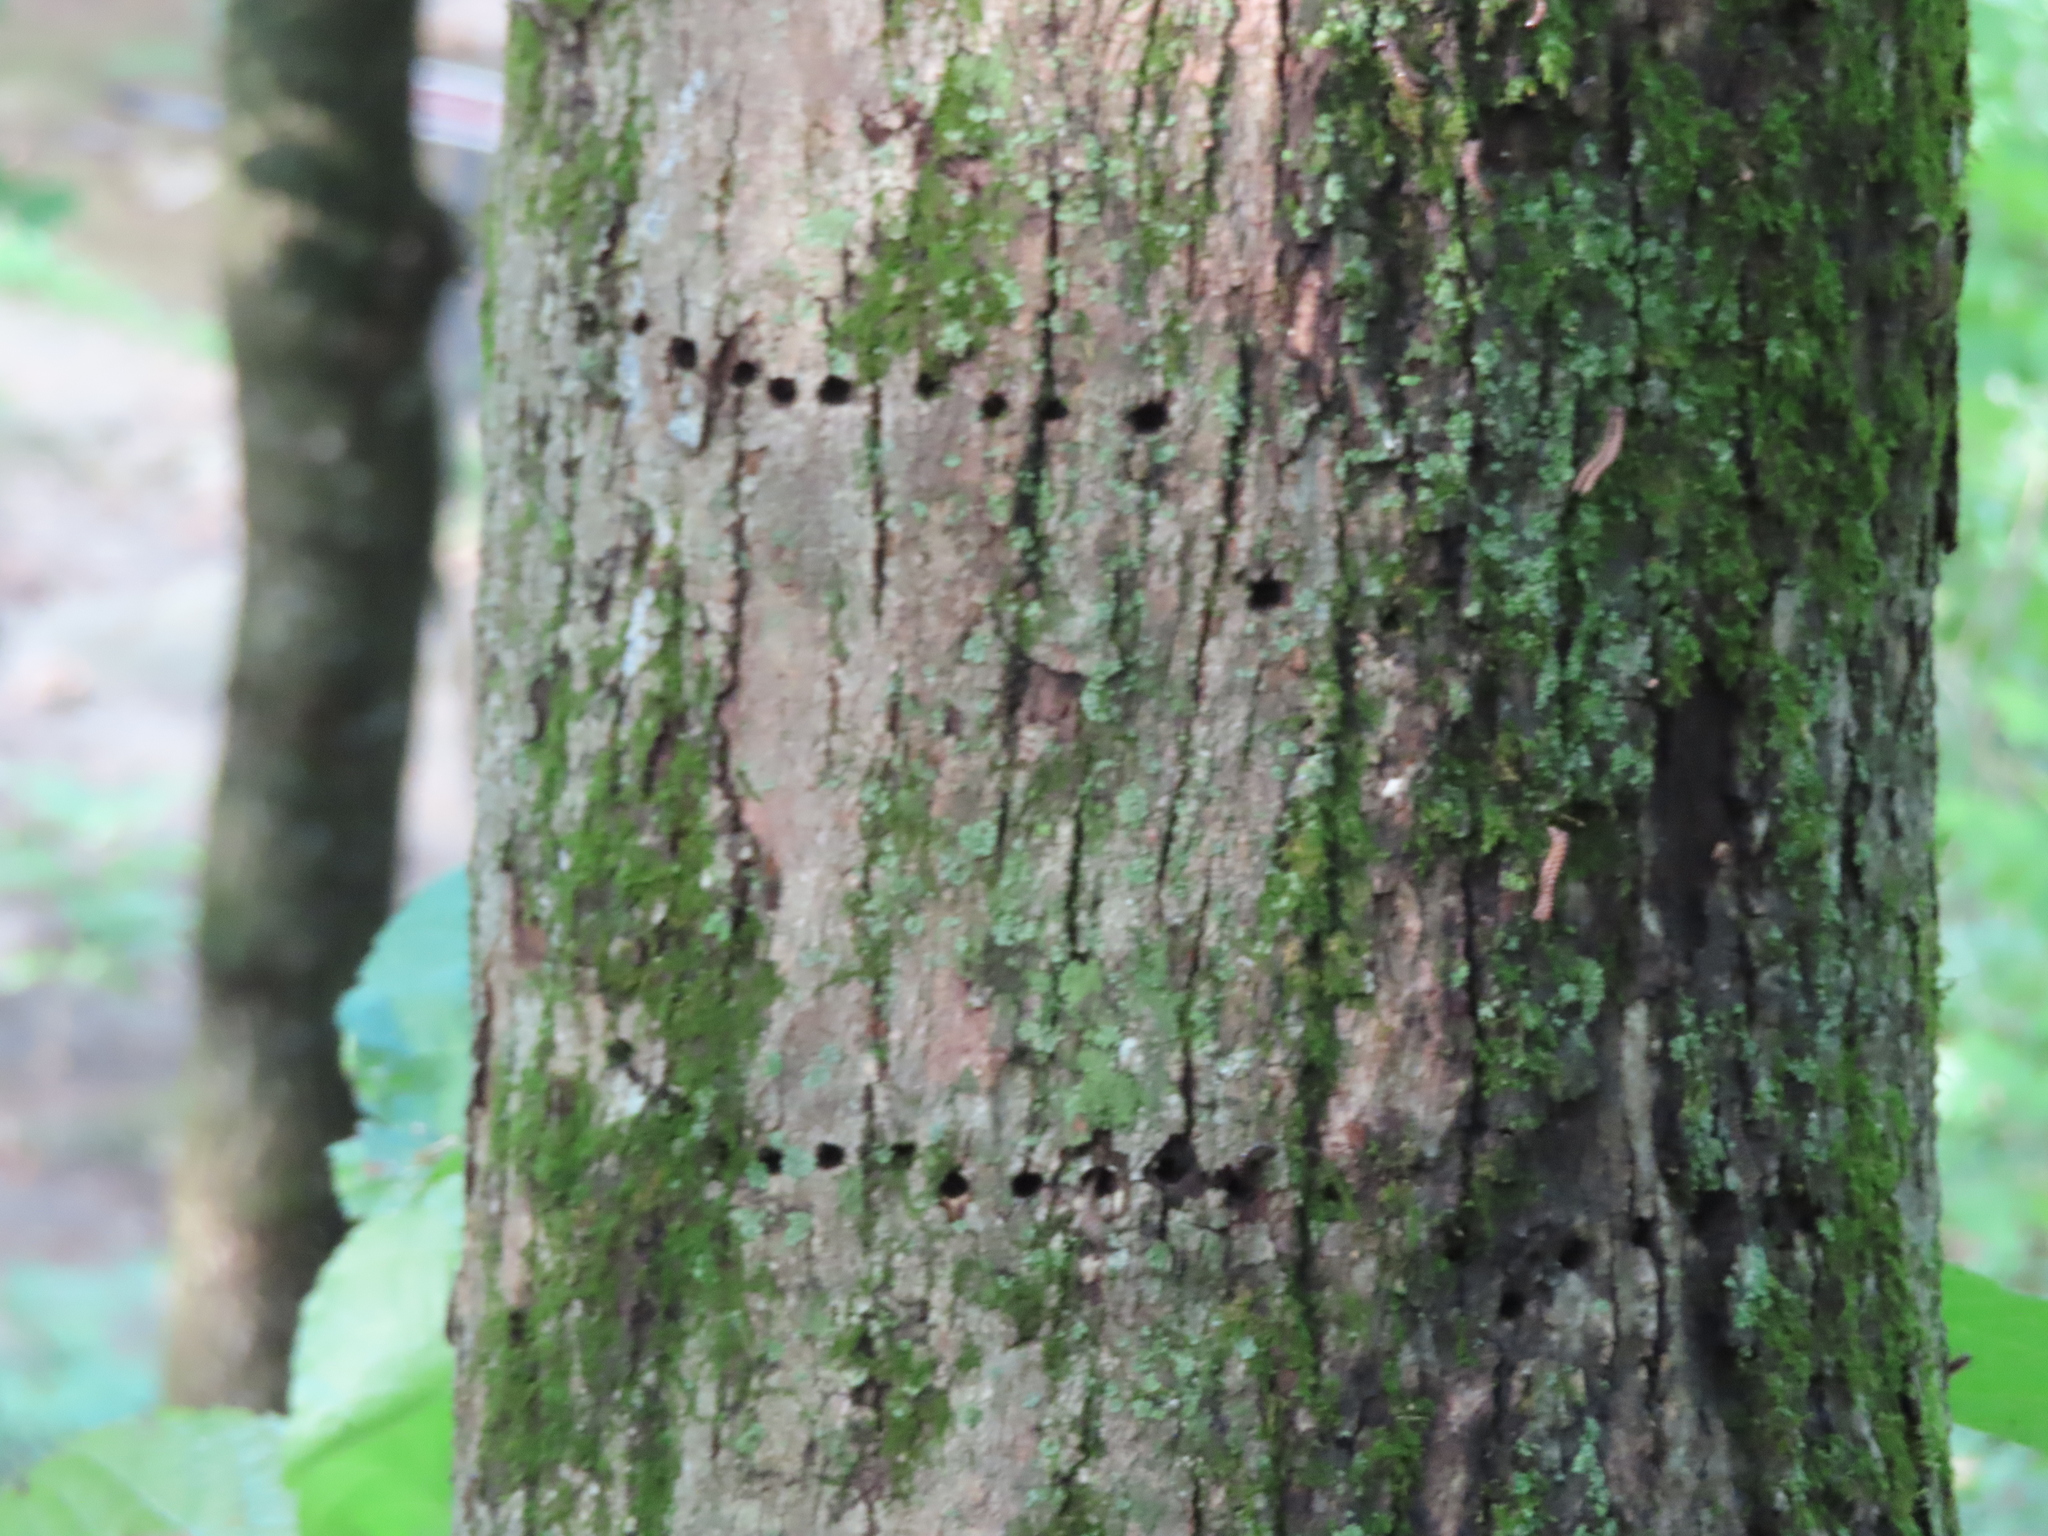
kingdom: Animalia
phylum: Chordata
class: Aves
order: Piciformes
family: Picidae
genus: Sphyrapicus
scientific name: Sphyrapicus varius
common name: Yellow-bellied sapsucker
